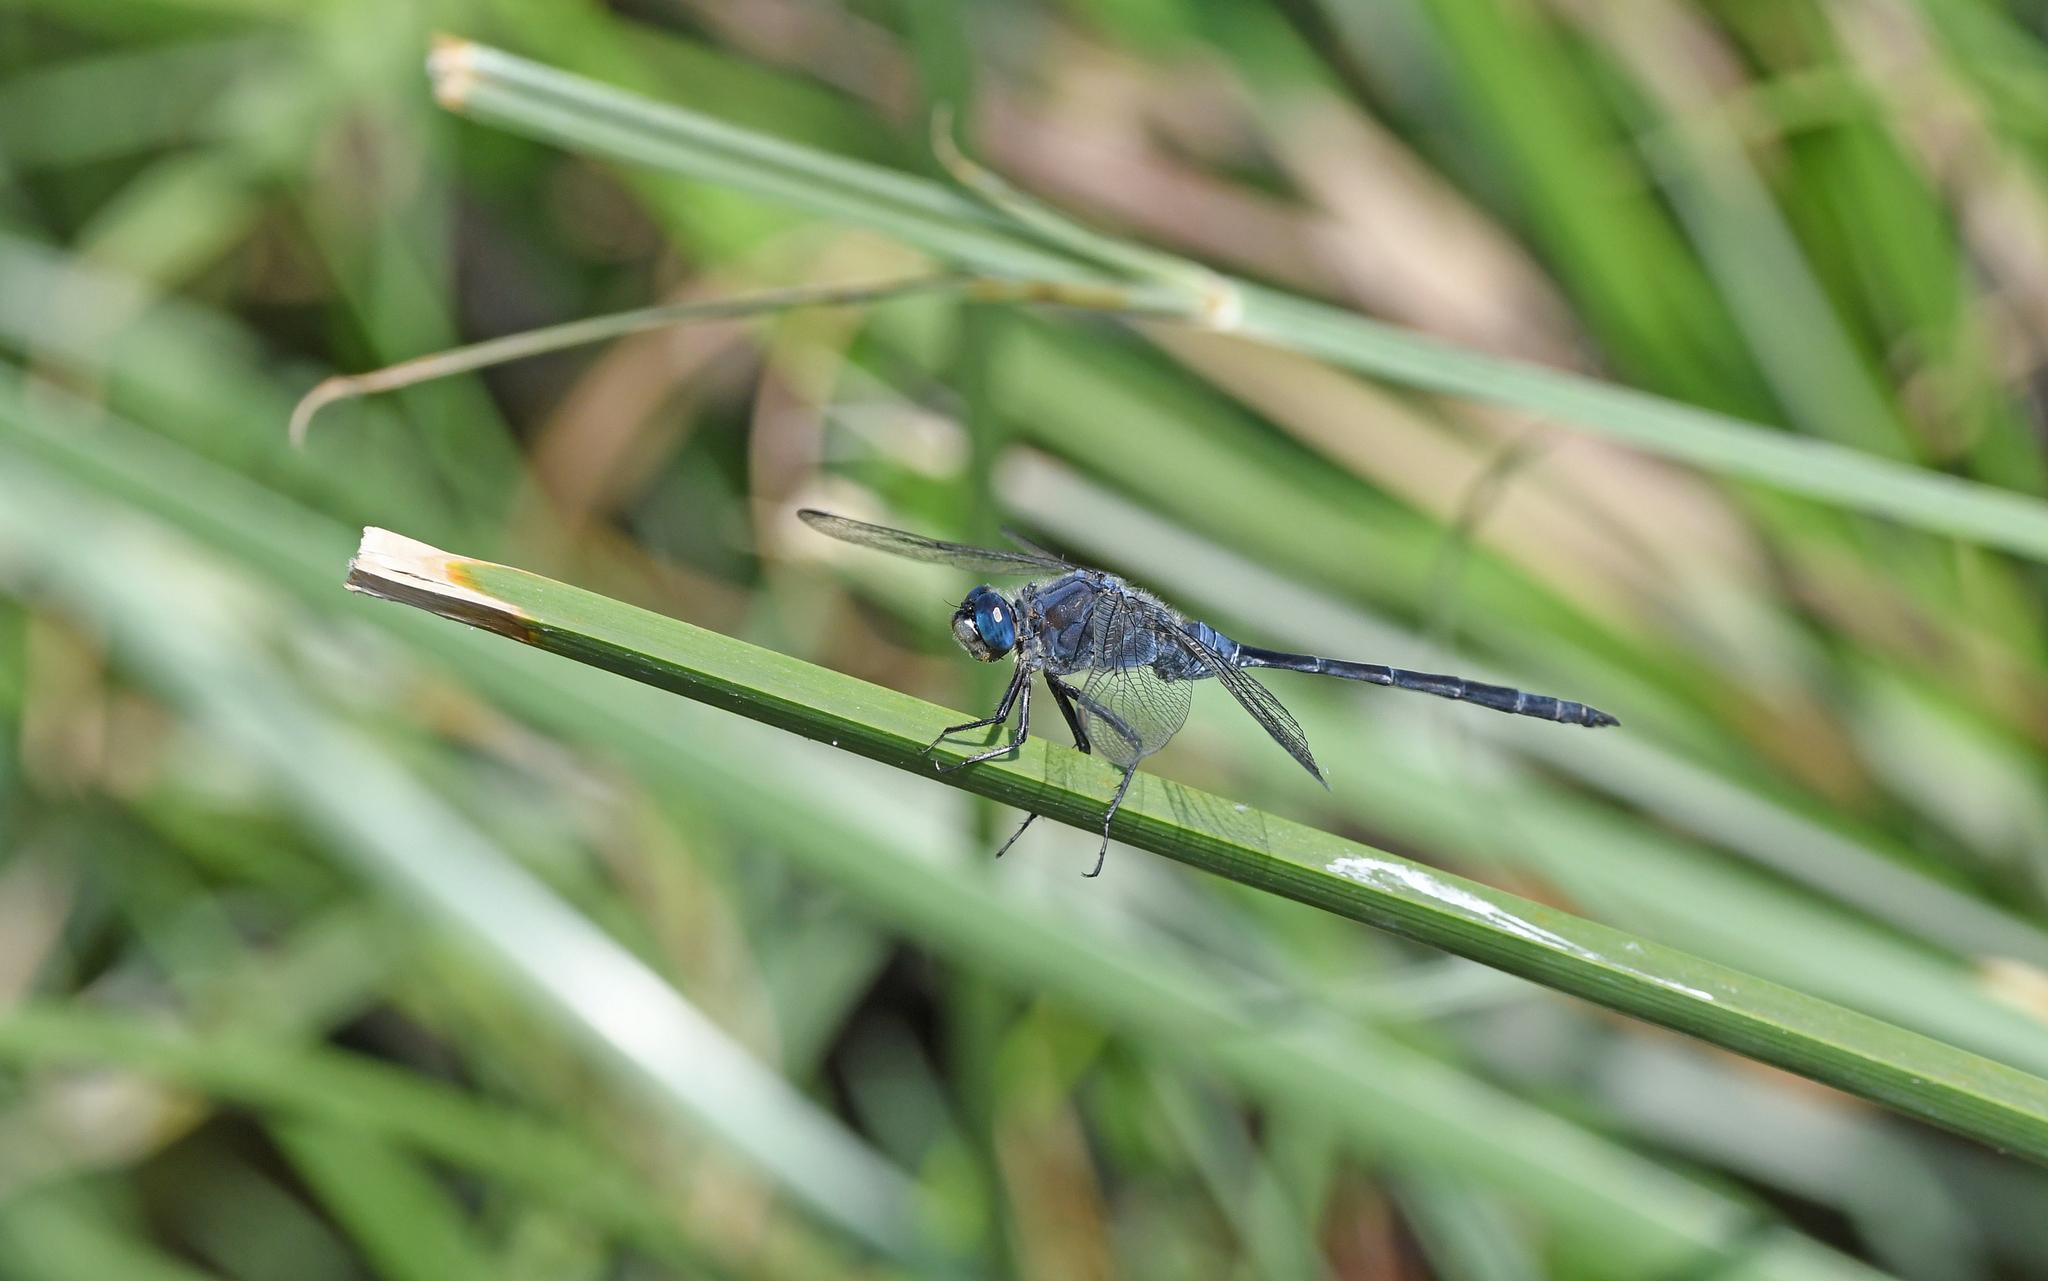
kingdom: Animalia
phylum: Arthropoda
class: Insecta
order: Odonata
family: Libellulidae
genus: Orthetrum
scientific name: Orthetrum trinacria
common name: Long skimmer
